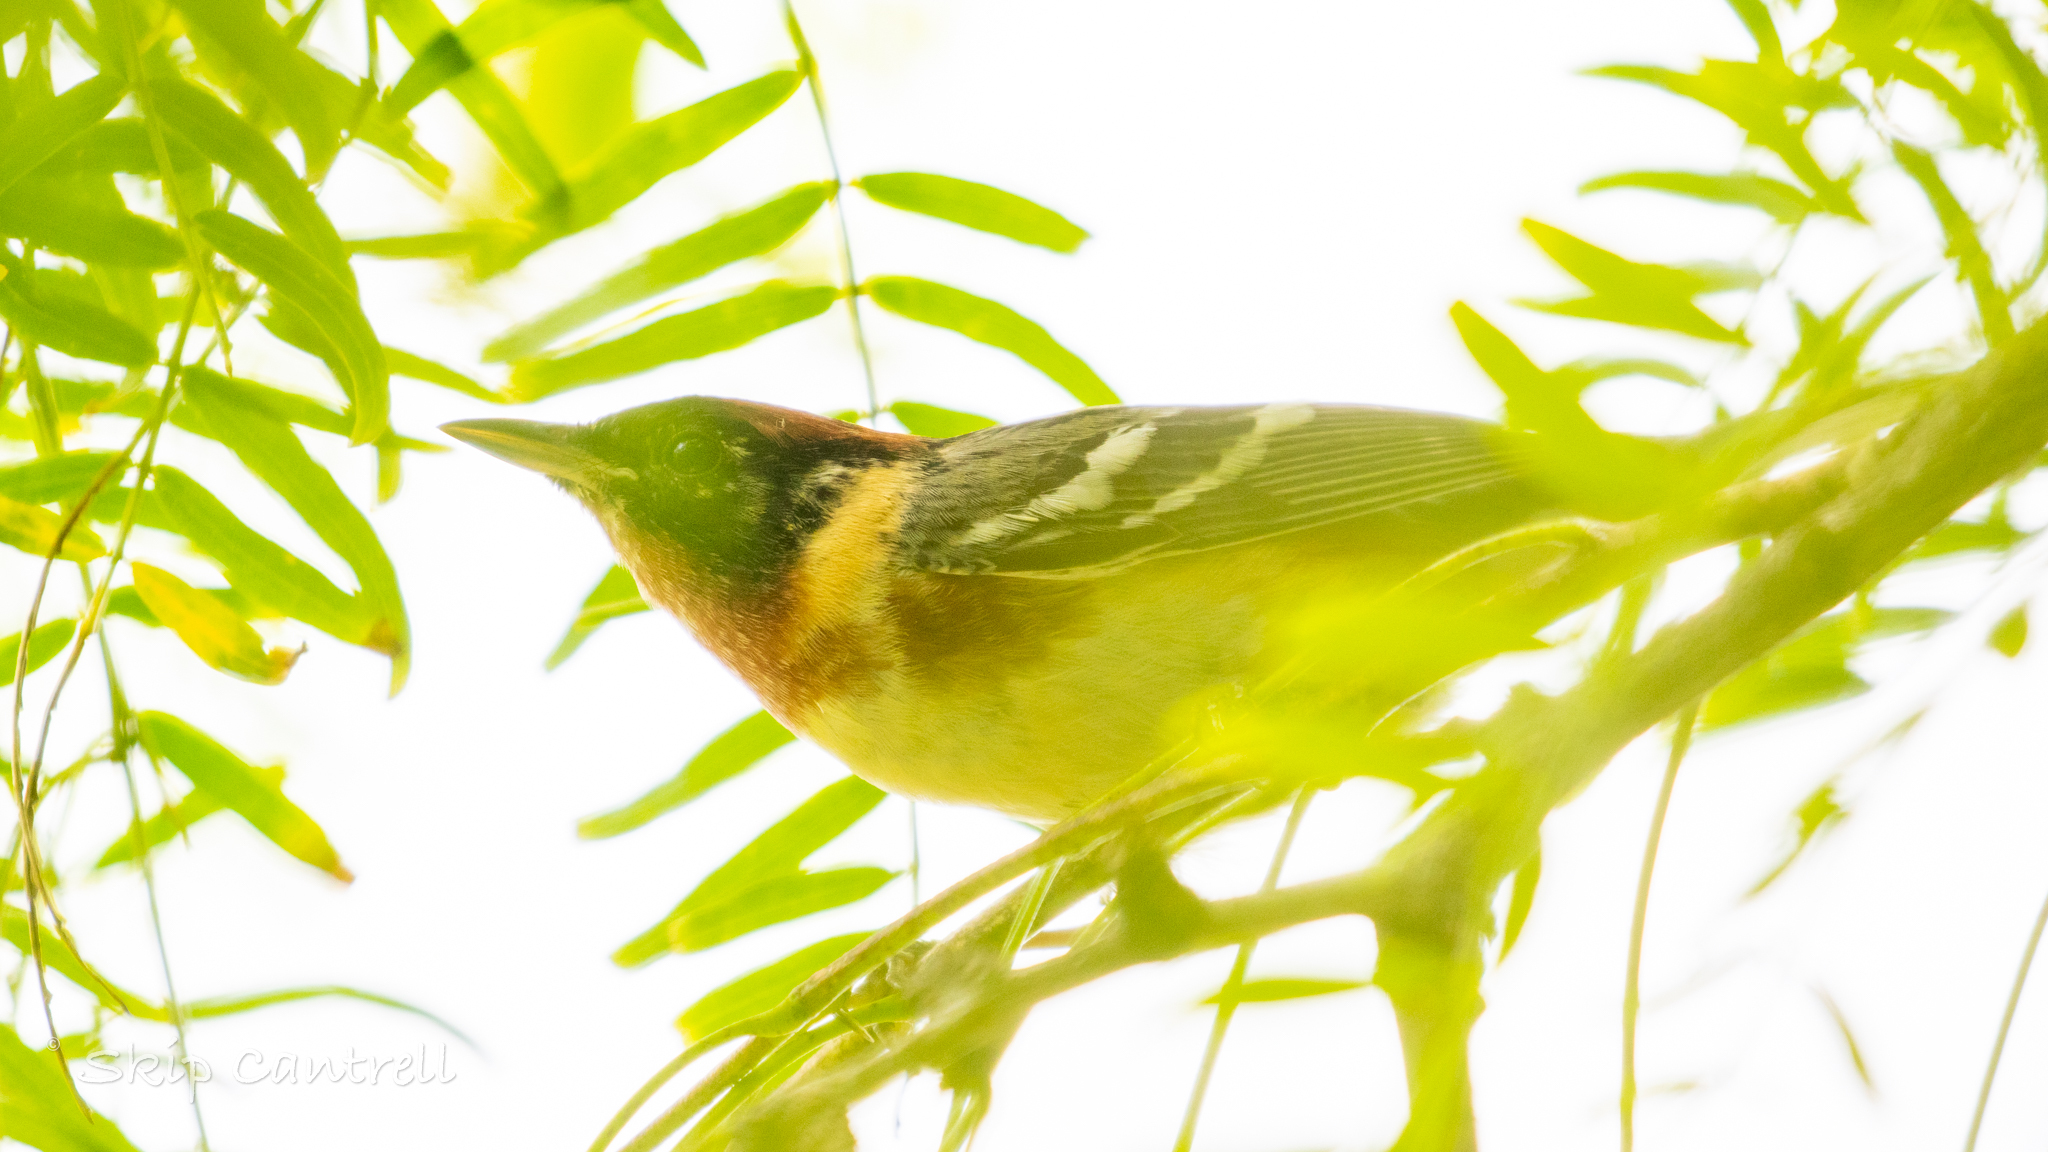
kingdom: Animalia
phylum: Chordata
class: Aves
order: Passeriformes
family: Parulidae
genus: Setophaga
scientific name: Setophaga castanea
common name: Bay-breasted warbler
